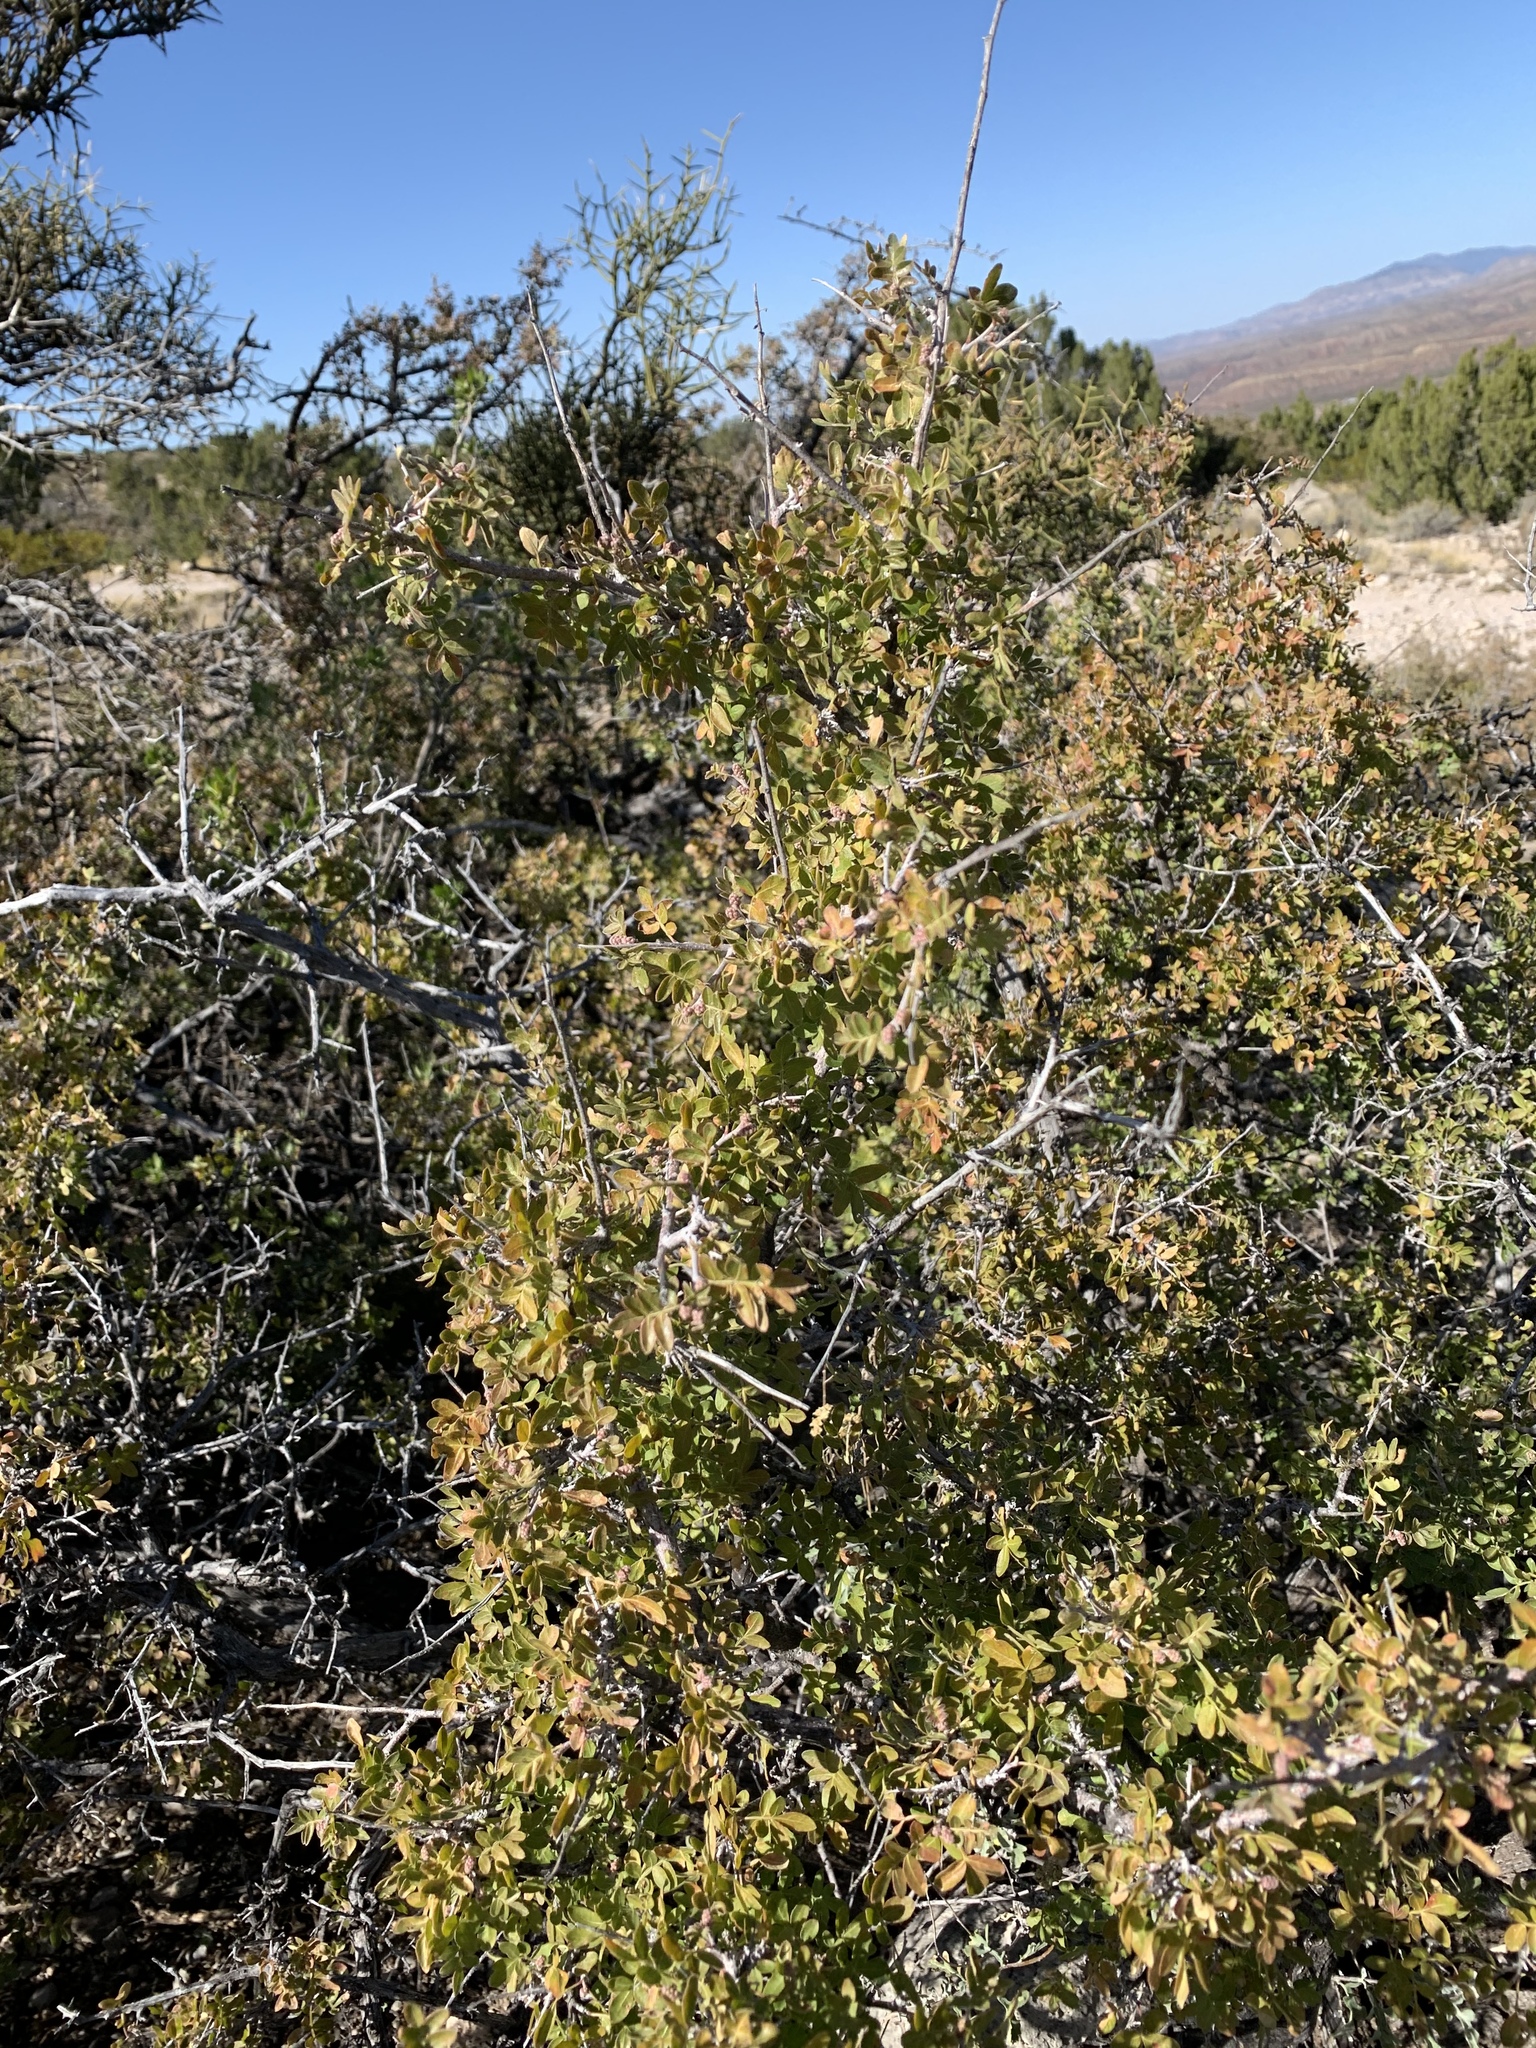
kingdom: Plantae
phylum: Tracheophyta
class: Magnoliopsida
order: Sapindales
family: Anacardiaceae
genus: Rhus
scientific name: Rhus microphylla
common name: Desert sumac
